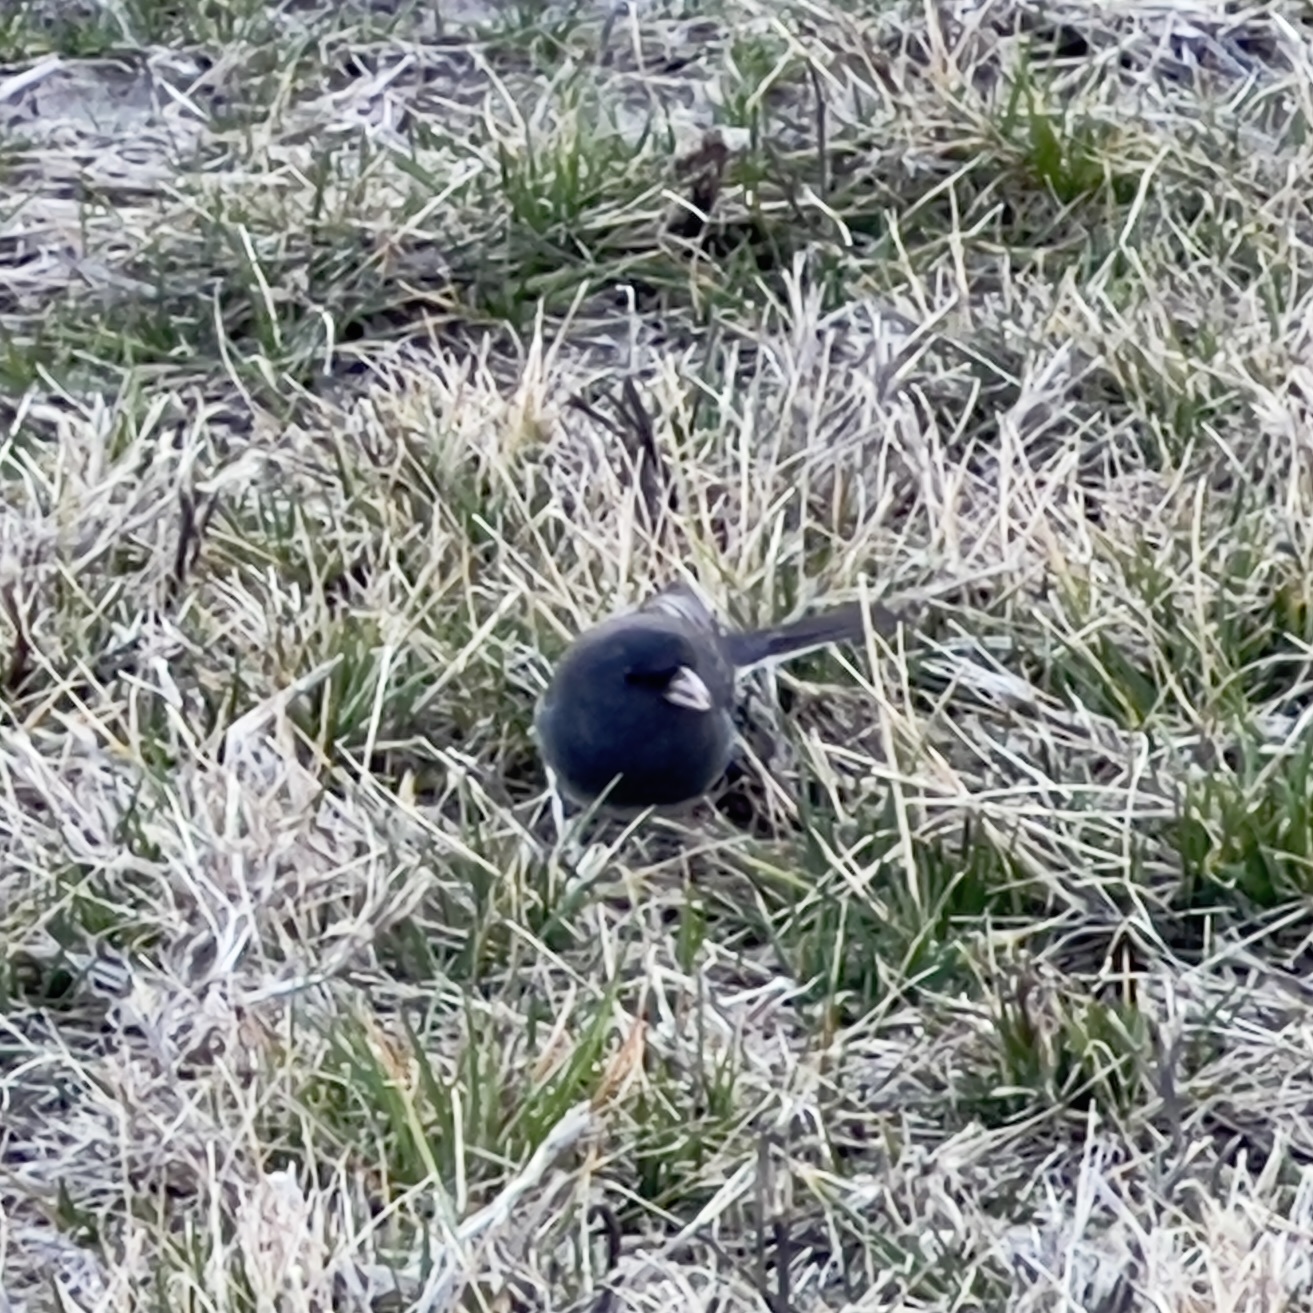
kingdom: Animalia
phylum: Chordata
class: Aves
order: Passeriformes
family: Passerellidae
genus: Junco
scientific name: Junco hyemalis
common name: Dark-eyed junco
